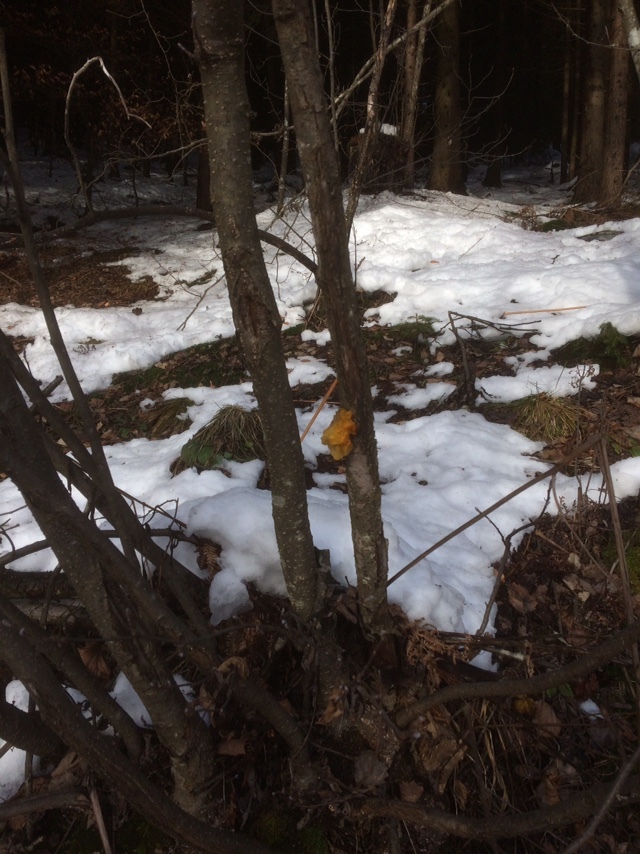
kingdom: Fungi
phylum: Basidiomycota
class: Tremellomycetes
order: Tremellales
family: Tremellaceae
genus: Tremella
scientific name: Tremella mesenterica
